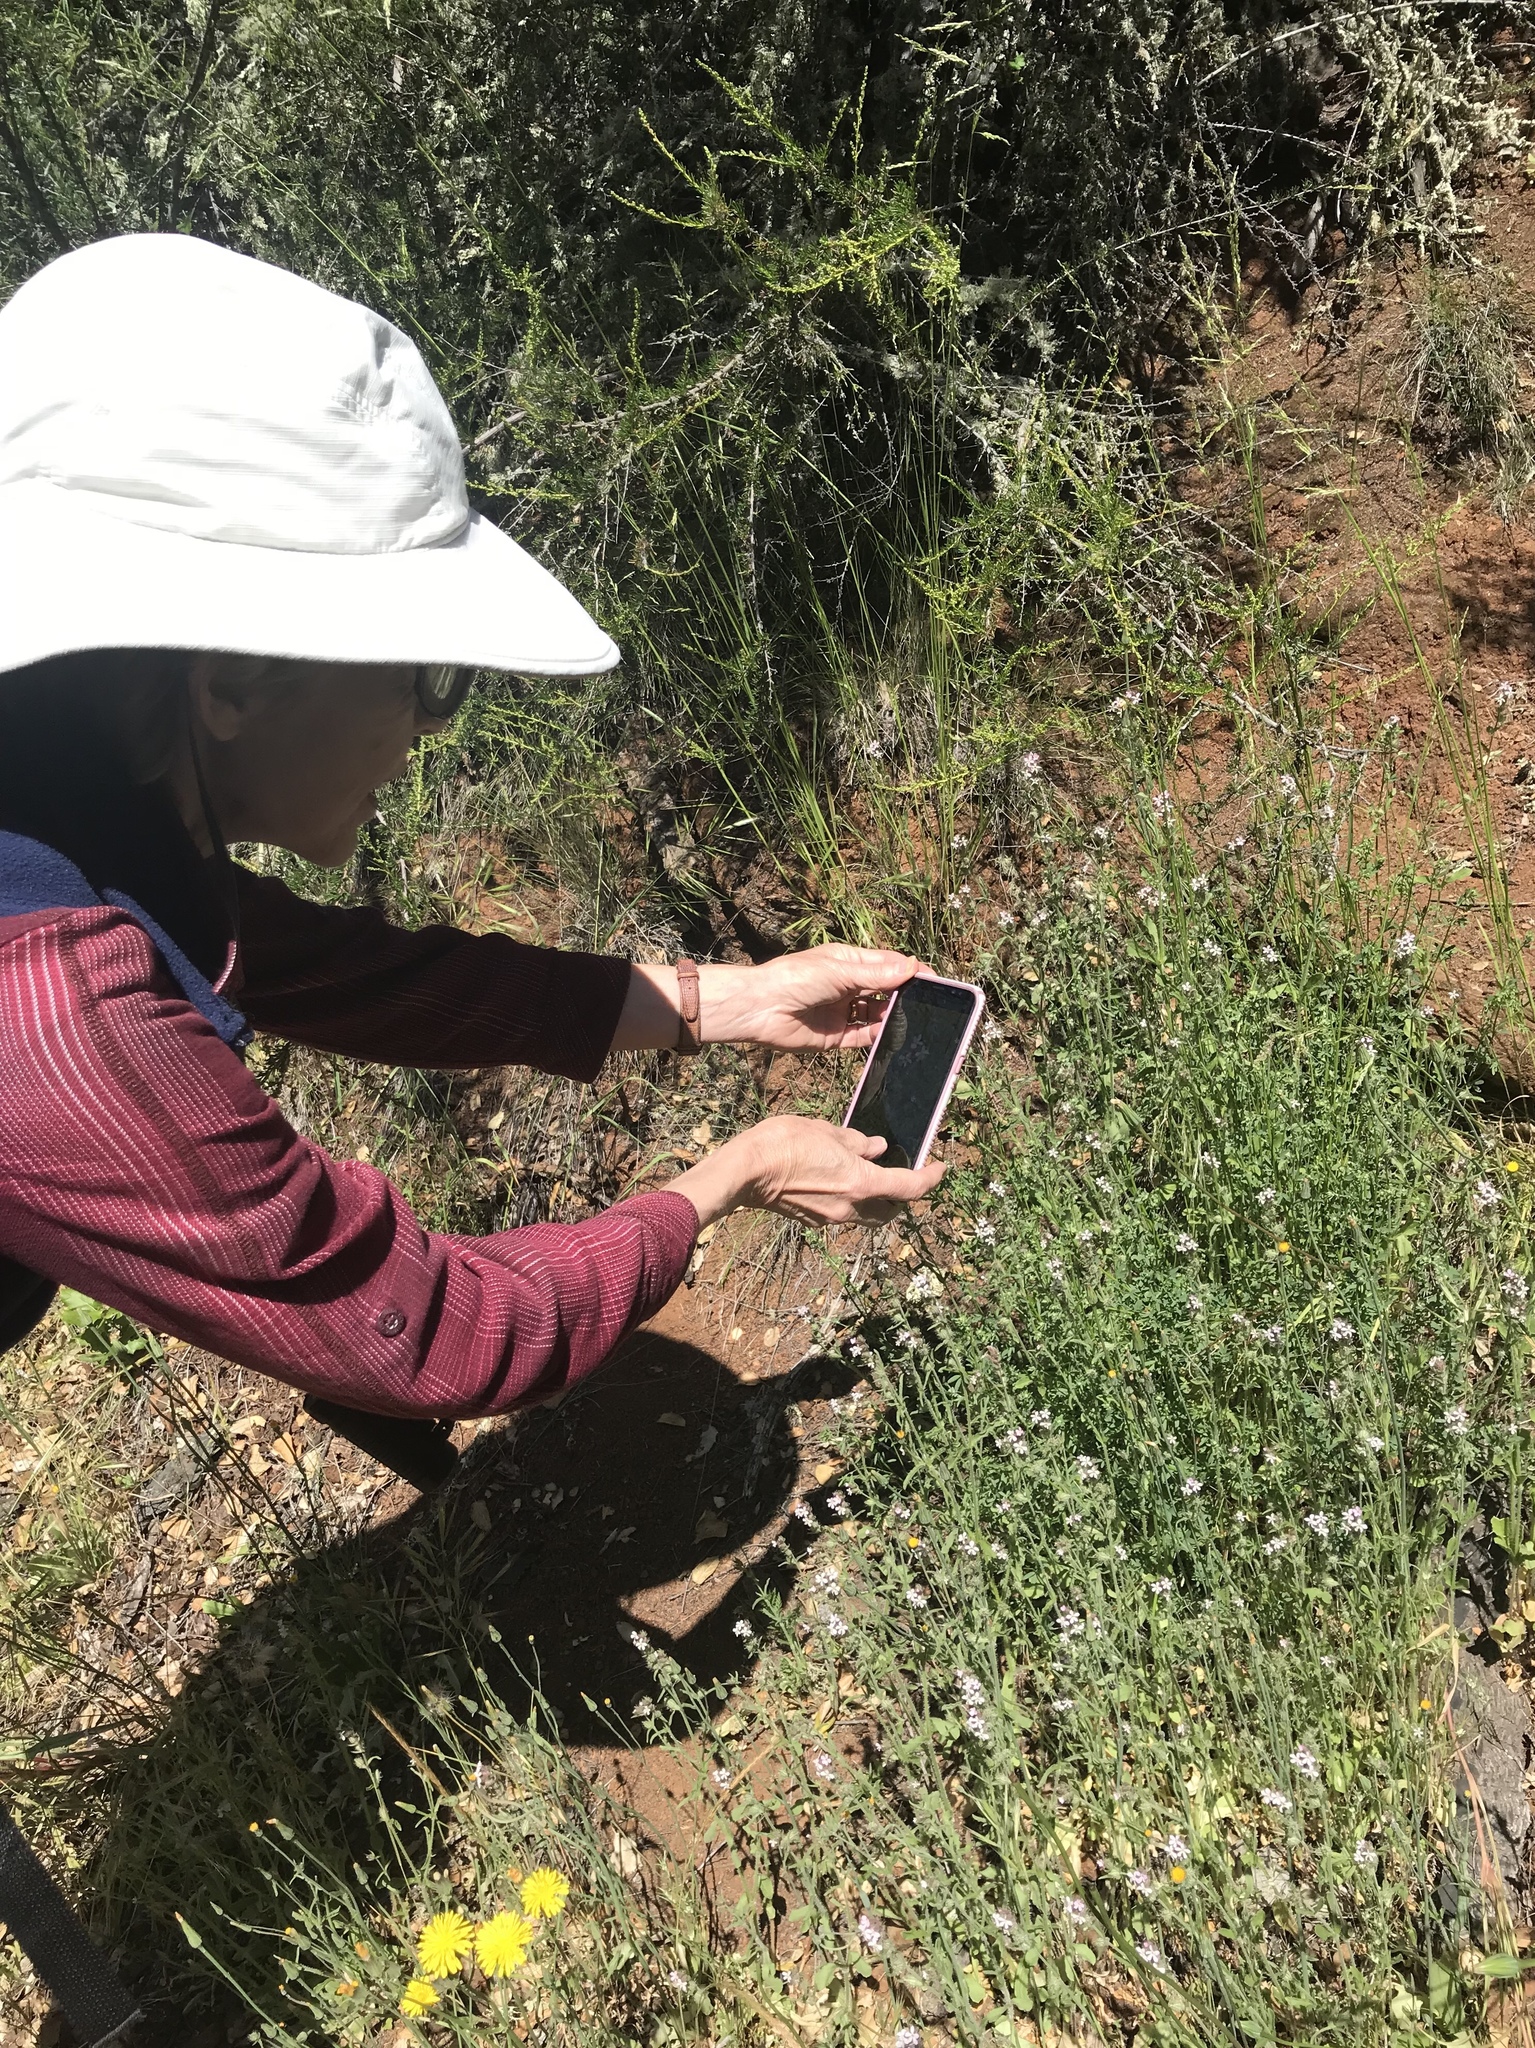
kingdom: Plantae
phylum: Tracheophyta
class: Magnoliopsida
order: Caryophyllales
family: Caryophyllaceae
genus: Silene
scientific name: Silene gallica
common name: Small-flowered catchfly
